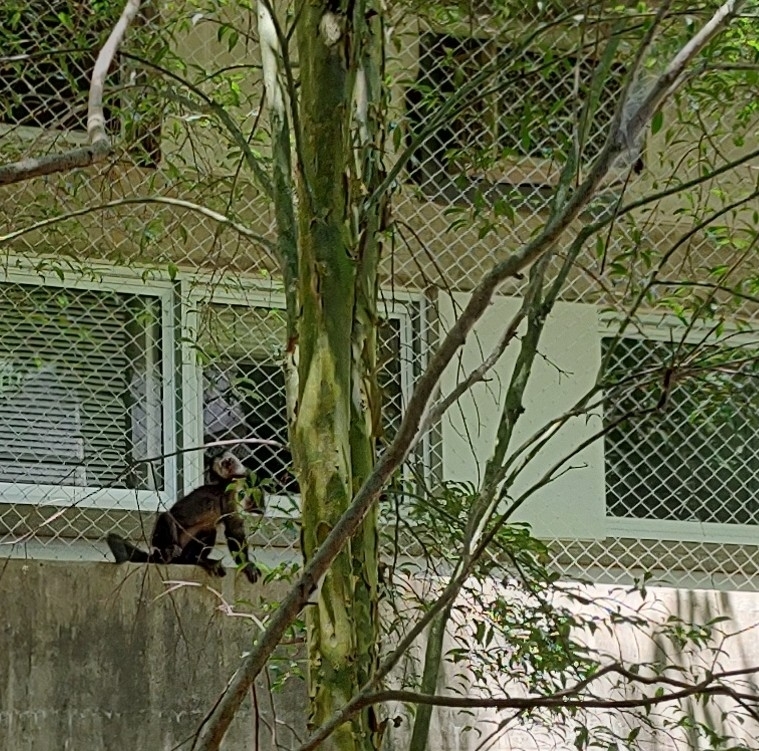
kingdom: Animalia
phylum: Chordata
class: Mammalia
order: Primates
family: Cebidae
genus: Sapajus
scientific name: Sapajus nigritus
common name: Black capuchin
